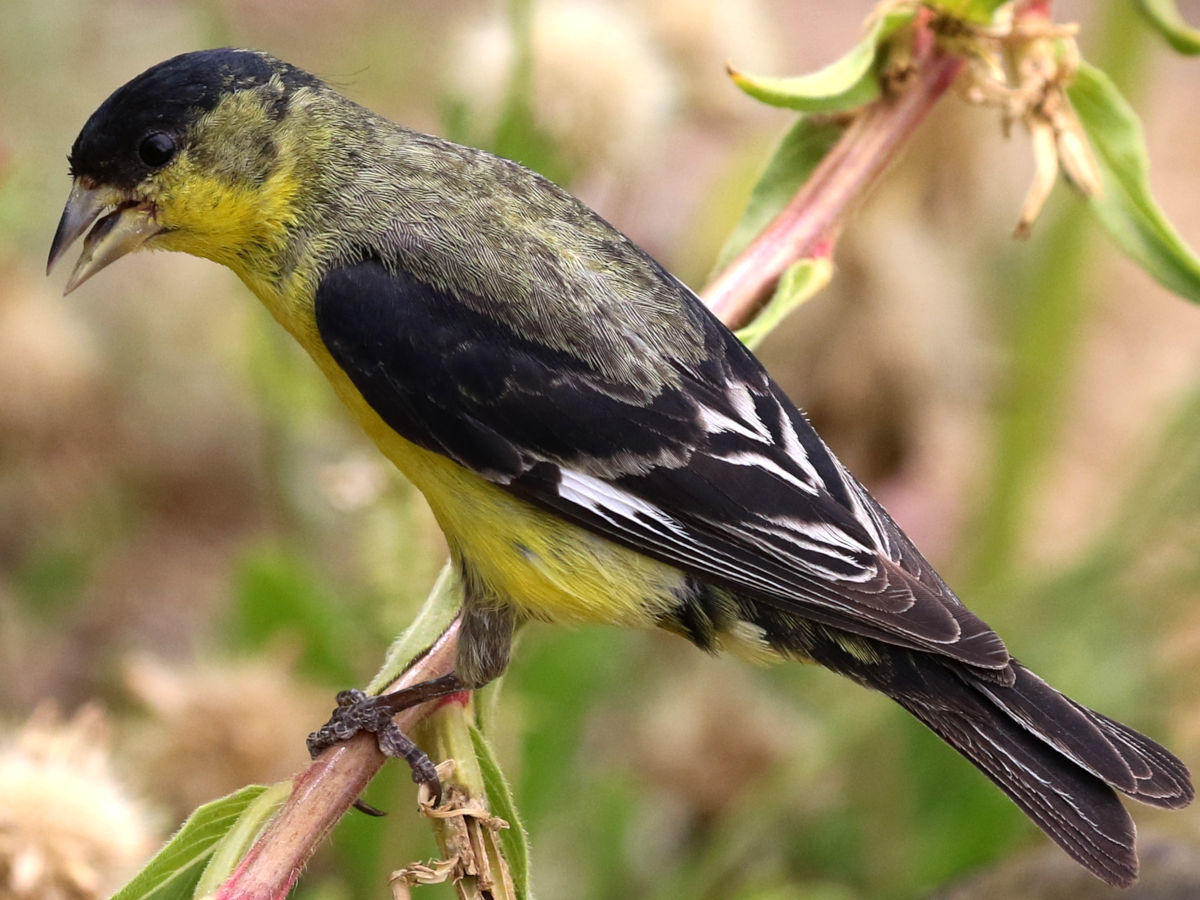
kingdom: Animalia
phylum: Chordata
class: Aves
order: Passeriformes
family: Fringillidae
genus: Spinus
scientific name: Spinus psaltria
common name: Lesser goldfinch
